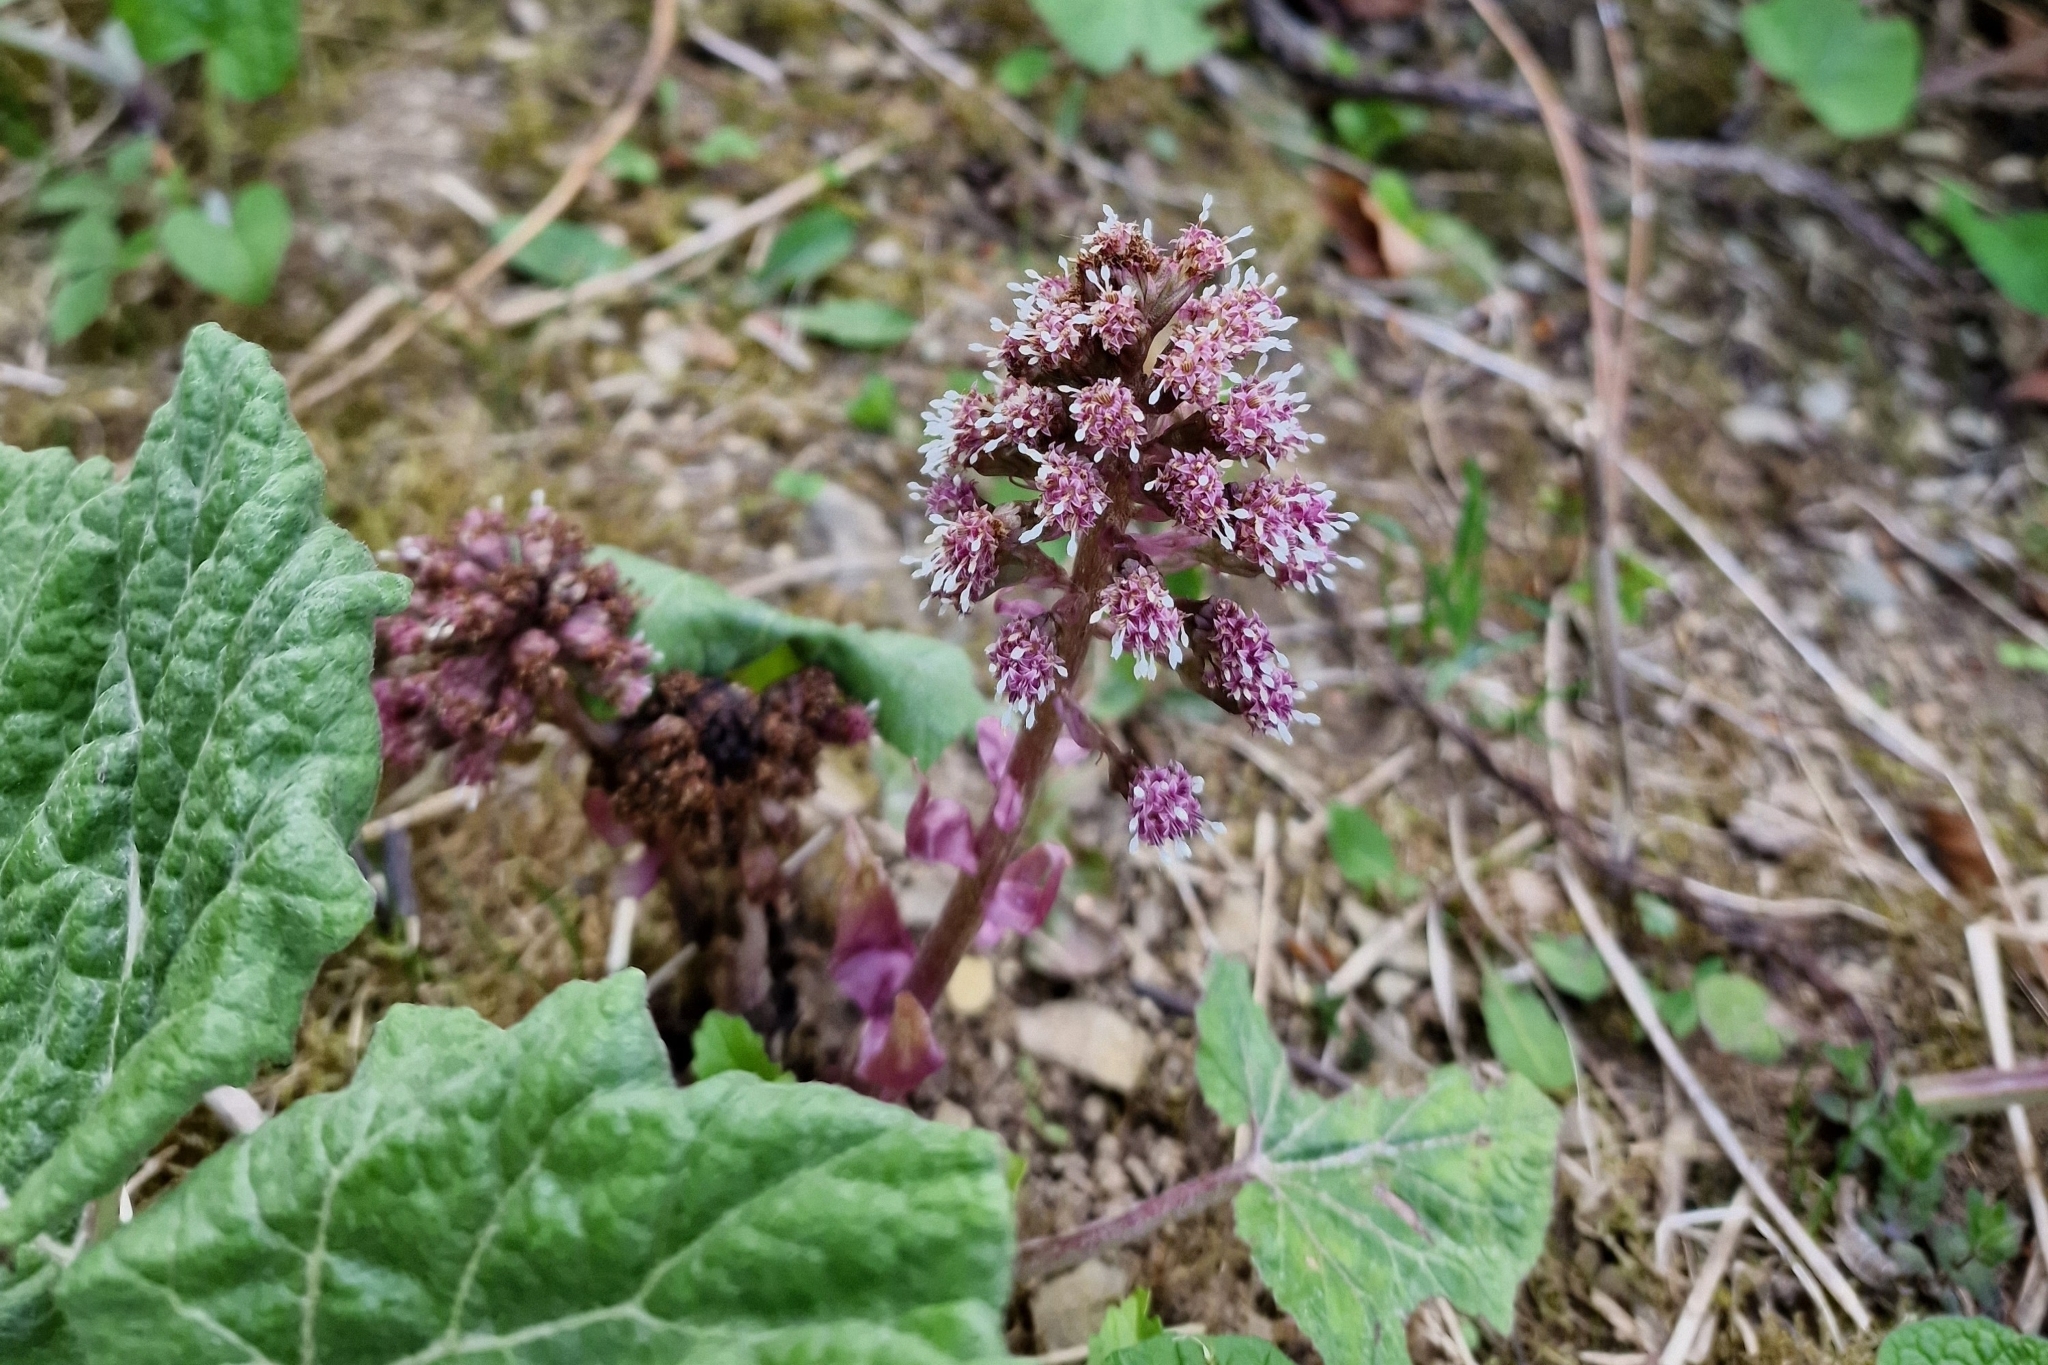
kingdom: Plantae
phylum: Tracheophyta
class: Magnoliopsida
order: Asterales
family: Asteraceae
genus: Petasites
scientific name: Petasites hybridus
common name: Butterbur
